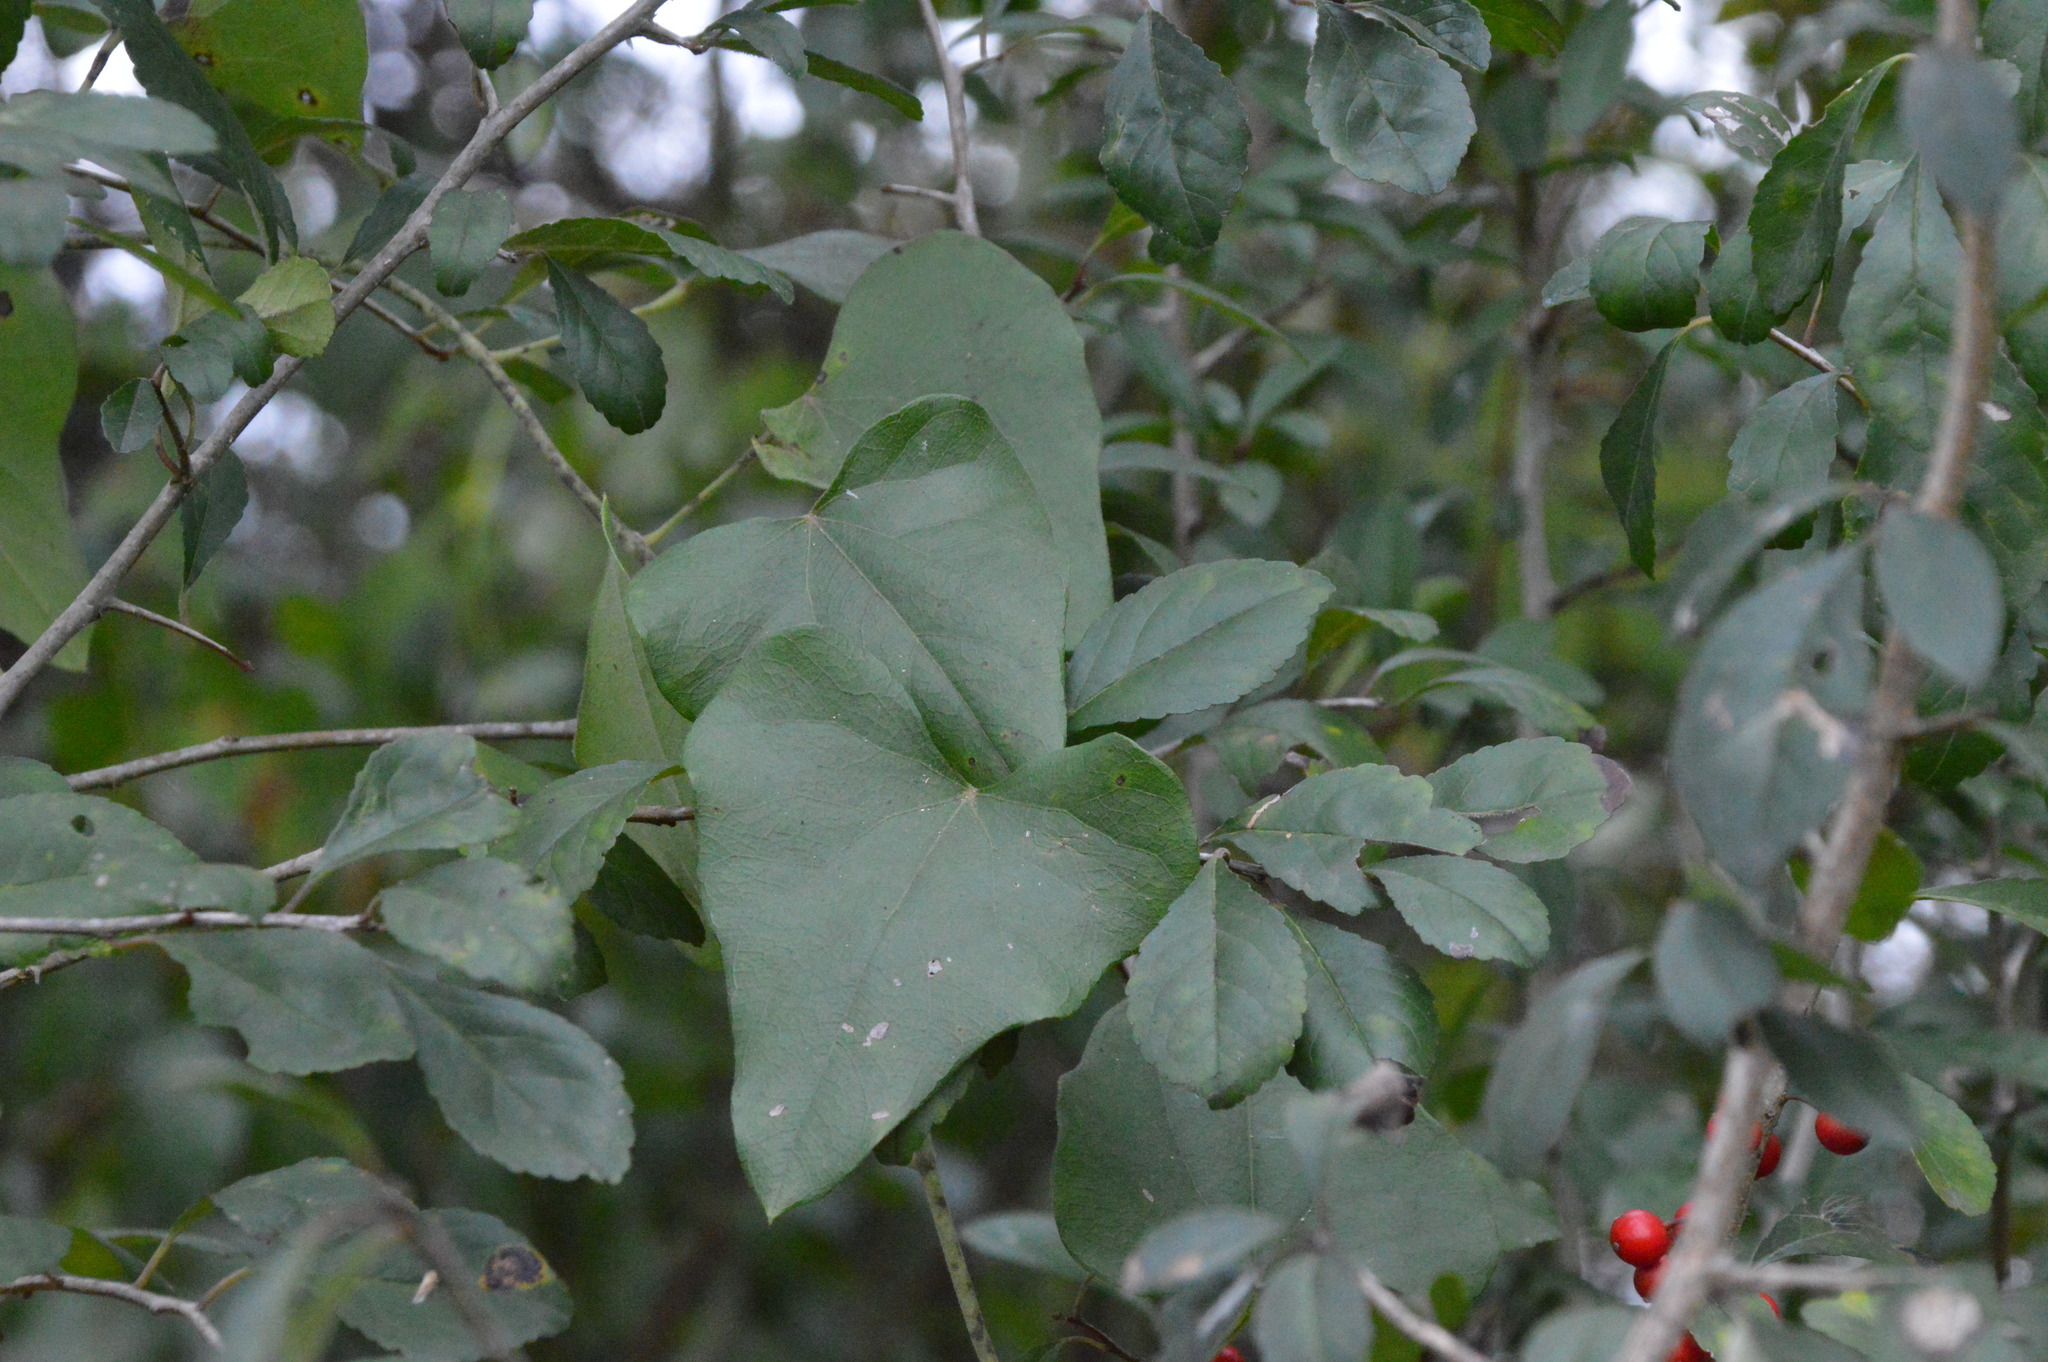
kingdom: Plantae
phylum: Tracheophyta
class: Magnoliopsida
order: Ranunculales
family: Menispermaceae
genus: Cocculus
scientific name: Cocculus carolinus
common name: Carolina moonseed
